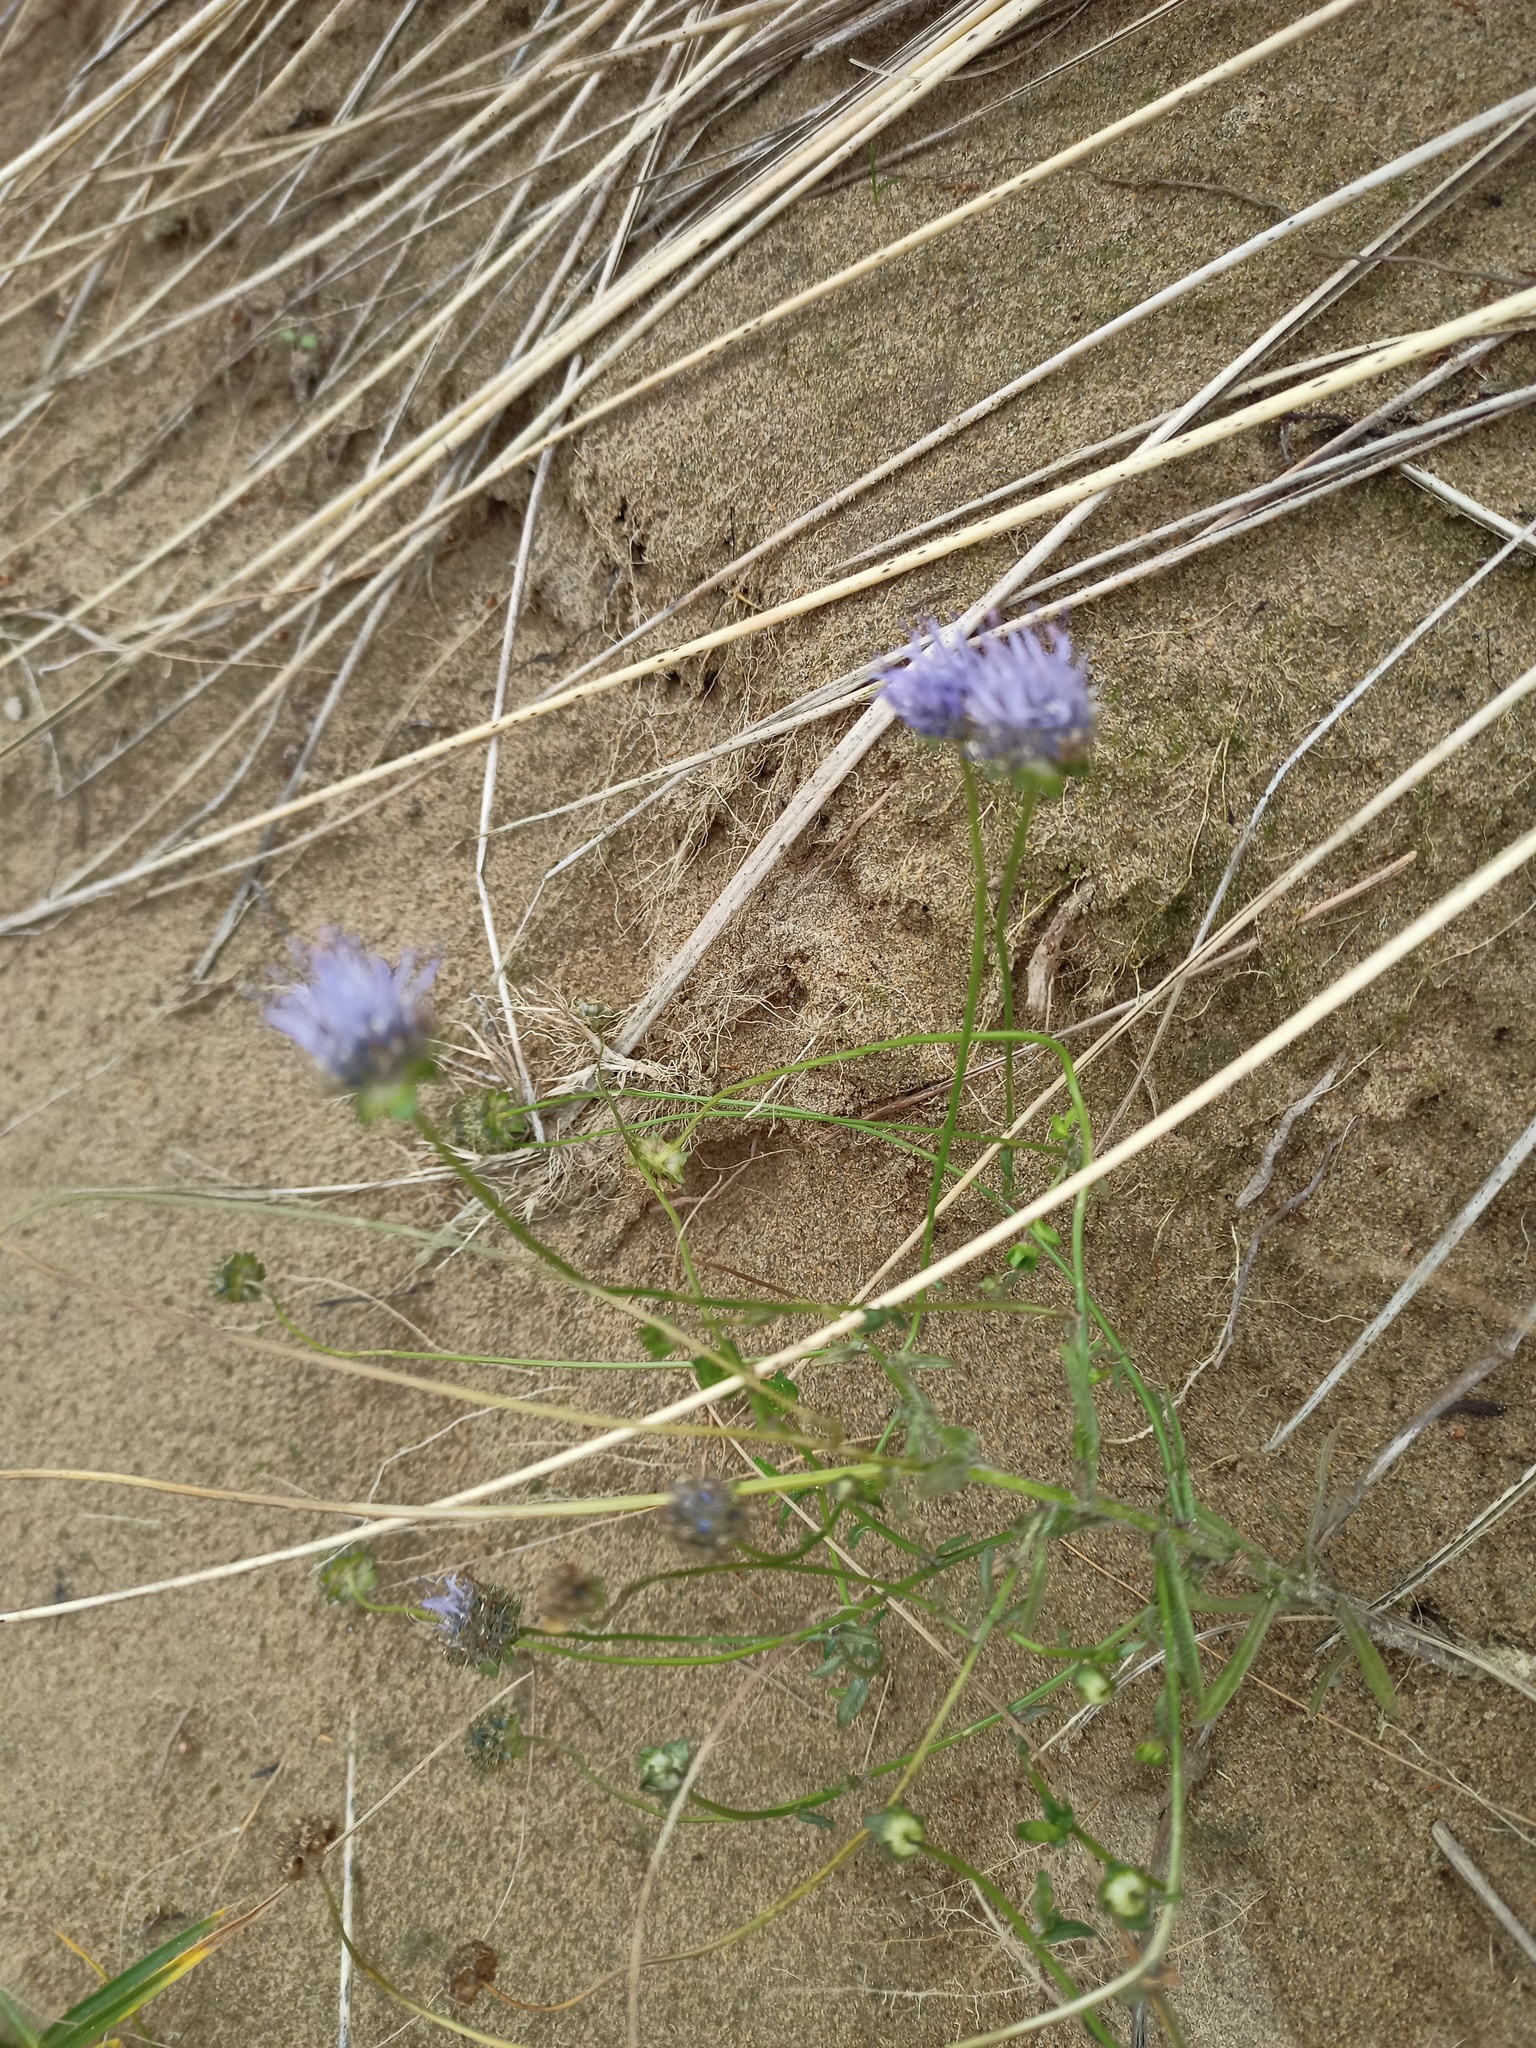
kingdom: Plantae
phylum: Tracheophyta
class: Magnoliopsida
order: Asterales
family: Campanulaceae
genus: Jasione
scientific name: Jasione montana
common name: Sheep's-bit
